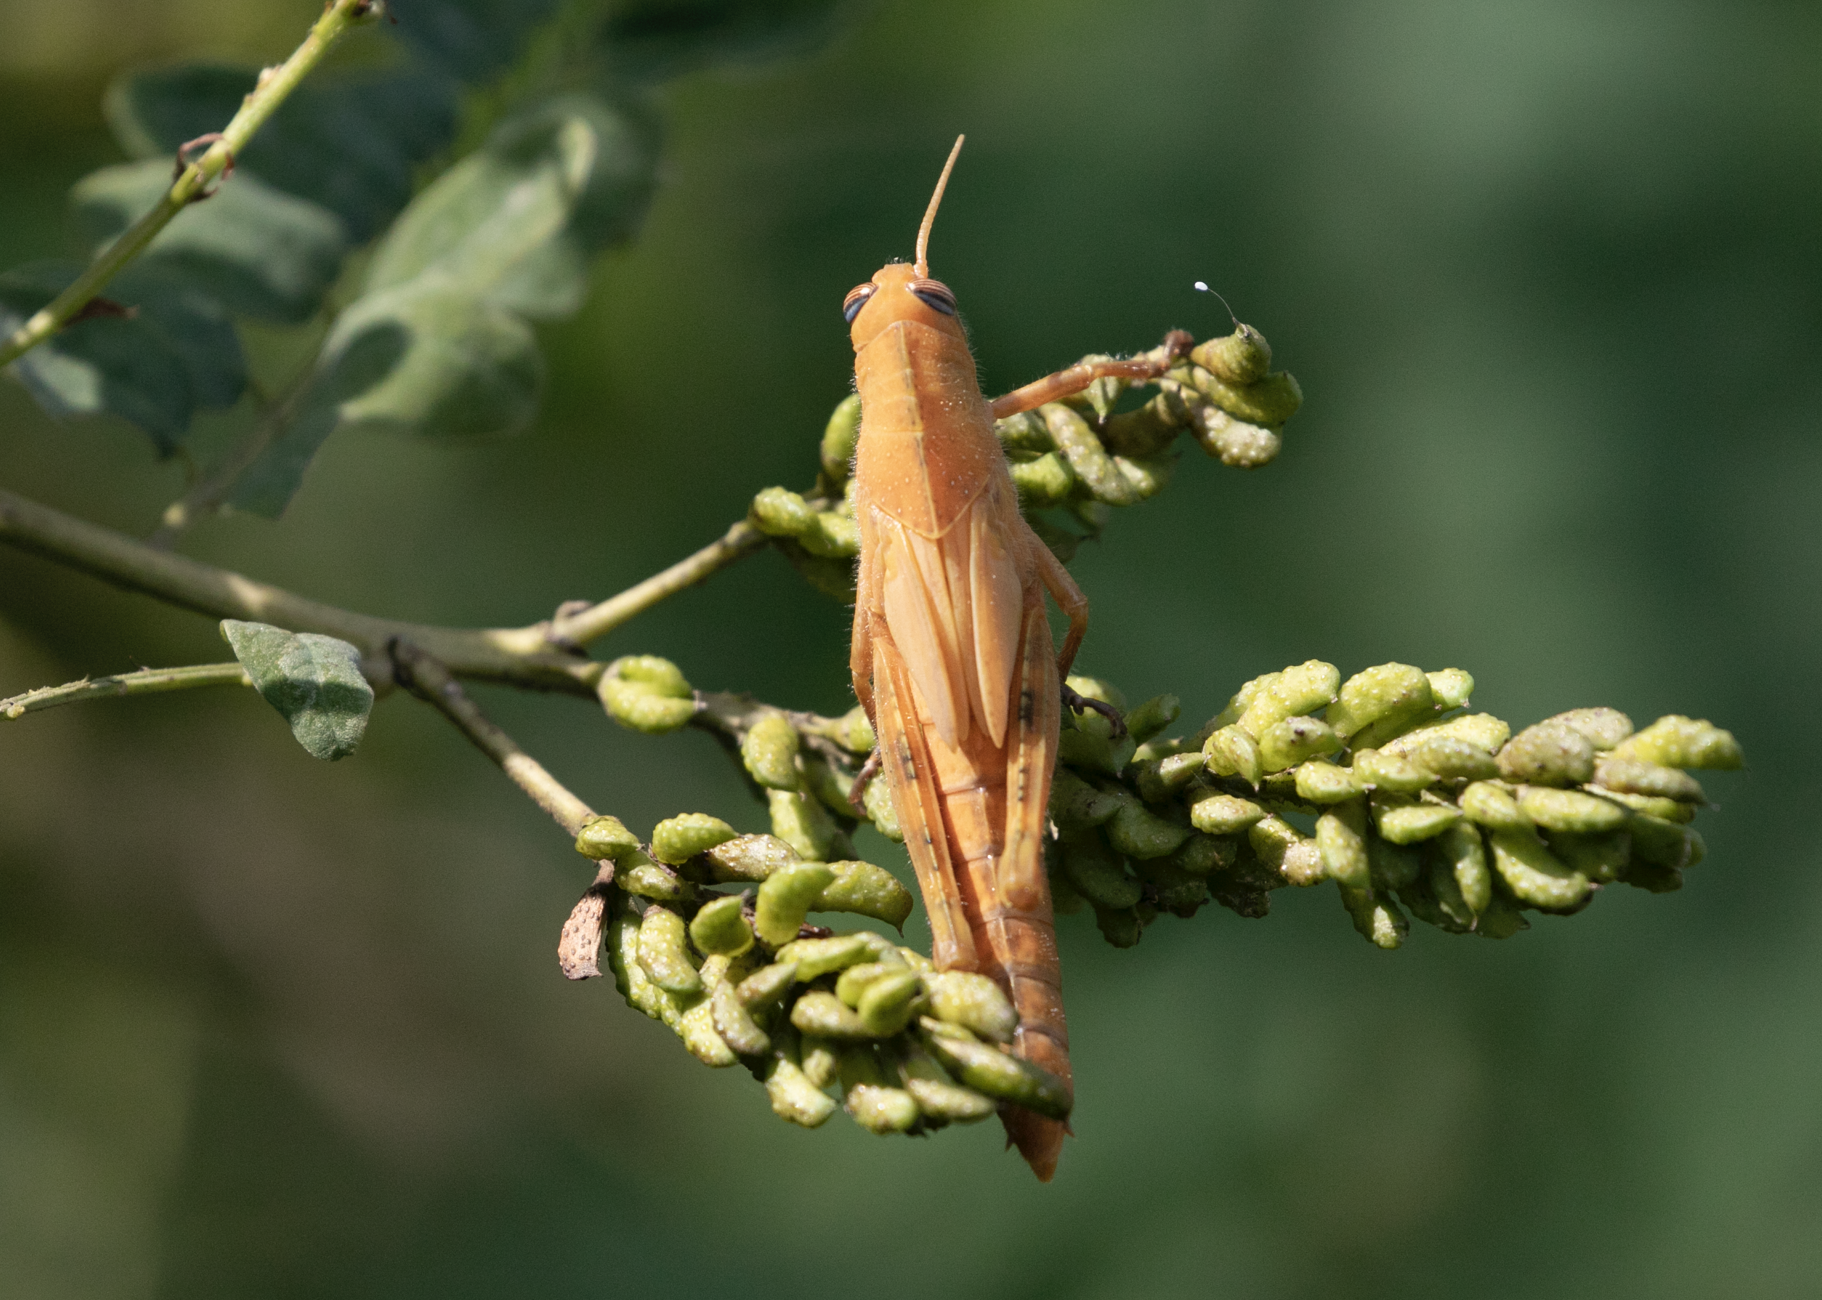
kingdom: Animalia
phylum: Arthropoda
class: Insecta
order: Orthoptera
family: Acrididae
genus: Anacridium
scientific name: Anacridium aegyptium
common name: Egyptian grasshopper
